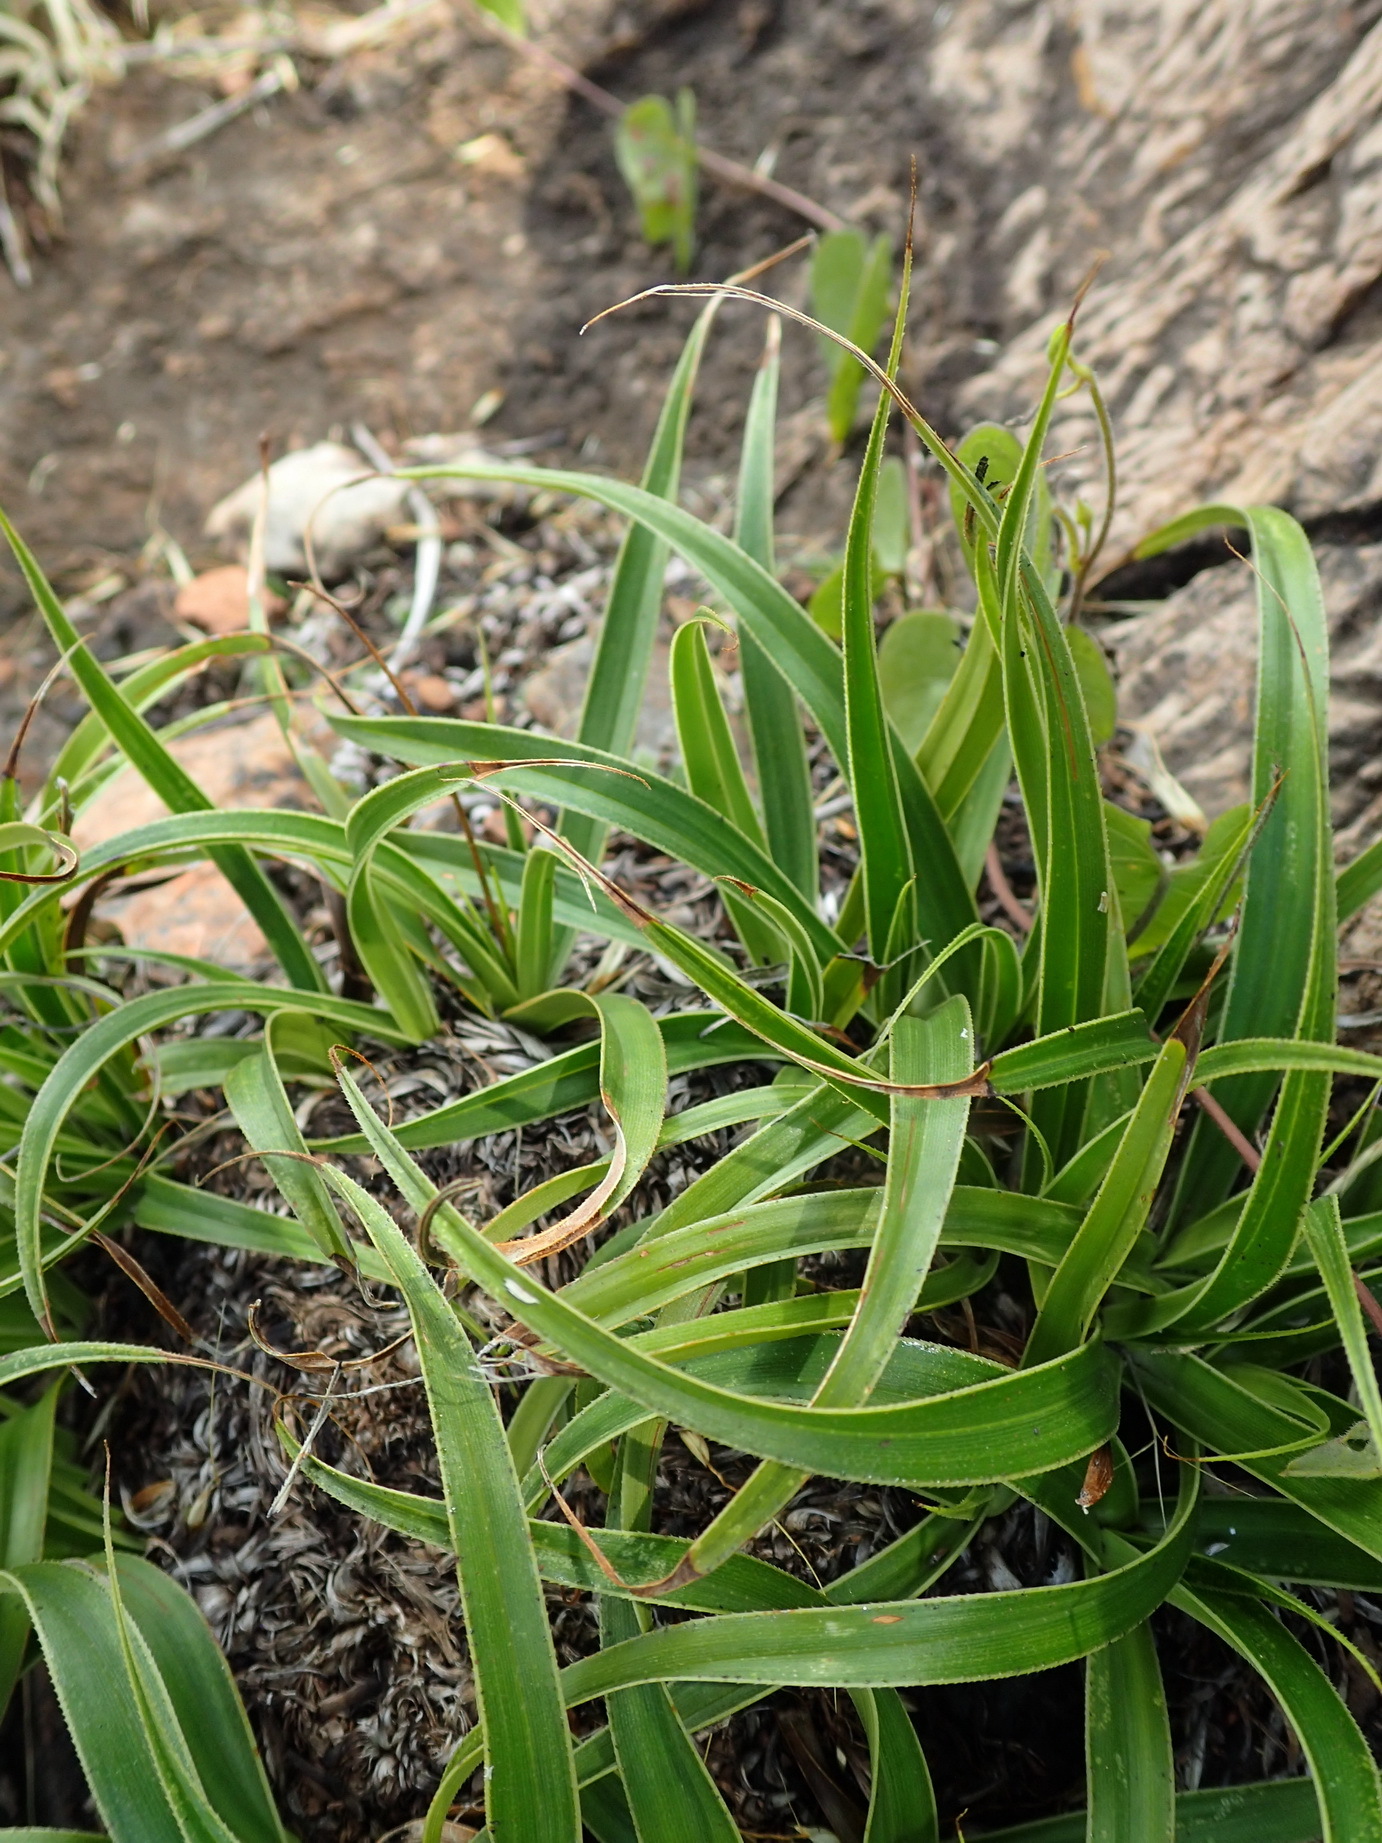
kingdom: Plantae
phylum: Tracheophyta
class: Liliopsida
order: Pandanales
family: Velloziaceae
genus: Xerophyta
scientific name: Xerophyta adendorffii
